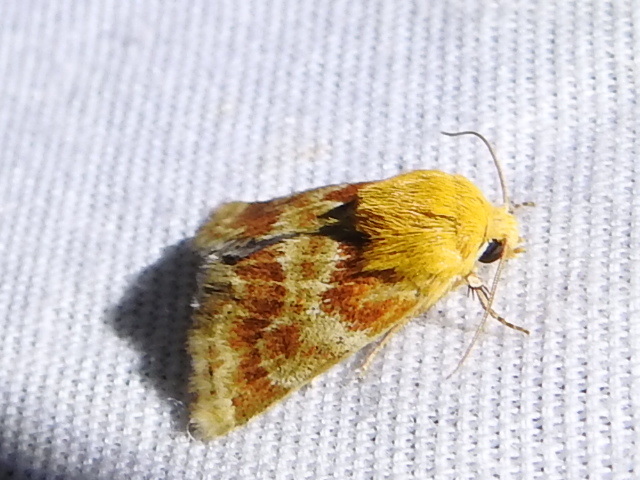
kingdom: Animalia
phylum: Arthropoda
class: Insecta
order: Lepidoptera
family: Noctuidae
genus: Schinia
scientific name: Schinia siren
